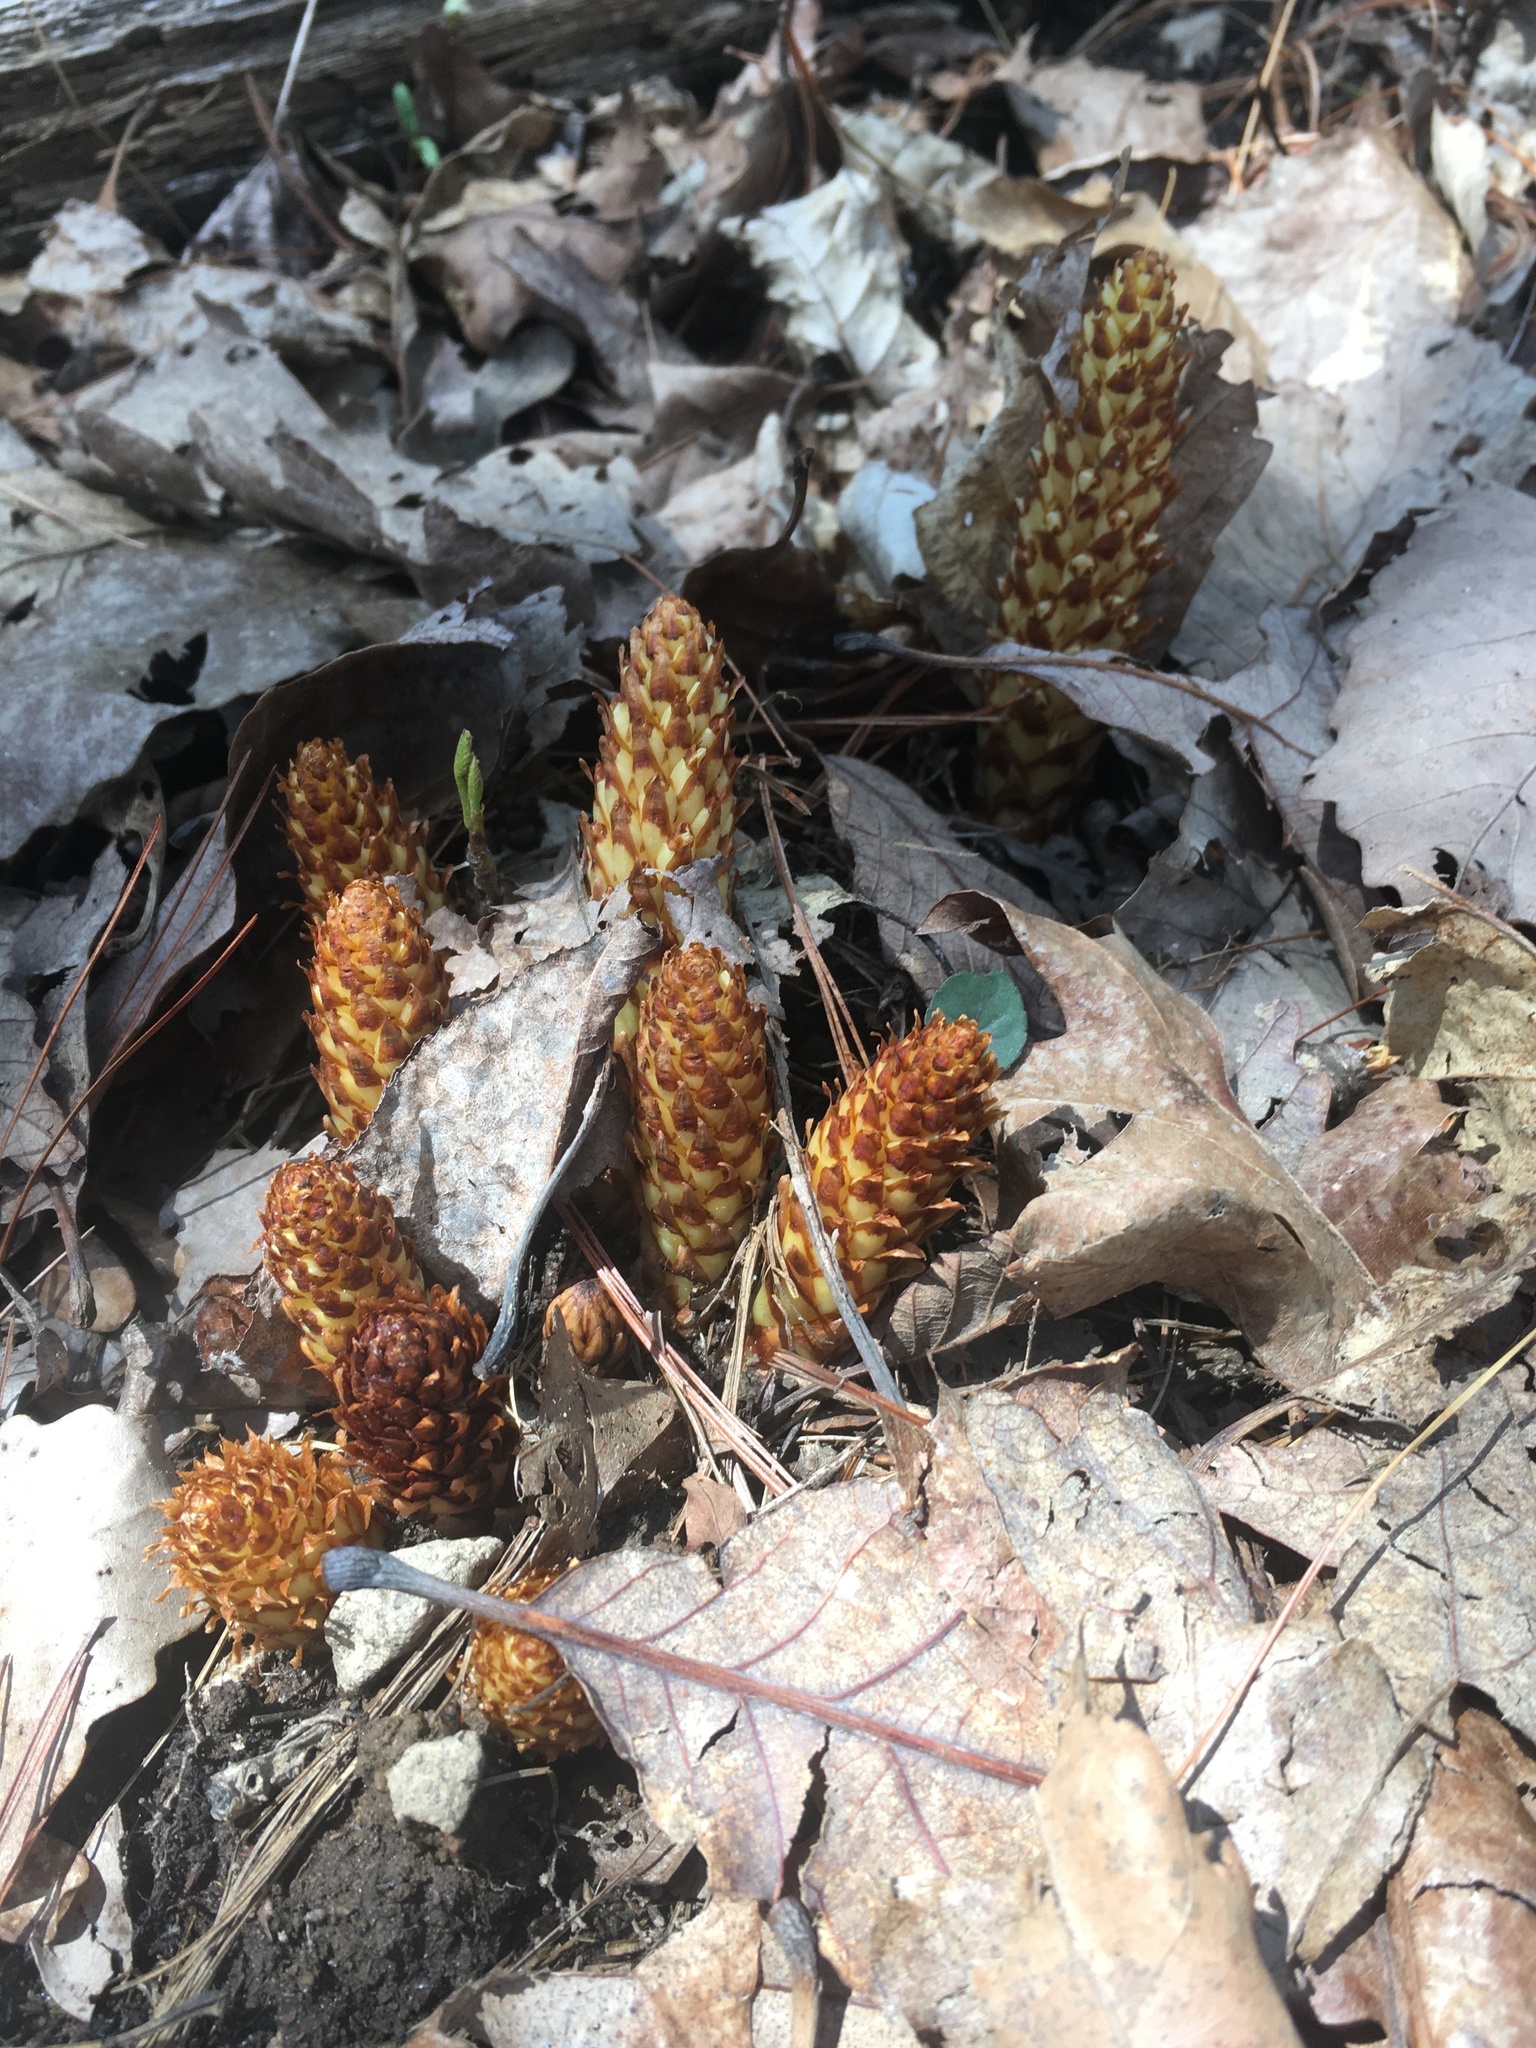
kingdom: Plantae
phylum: Tracheophyta
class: Magnoliopsida
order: Lamiales
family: Orobanchaceae
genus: Conopholis
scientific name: Conopholis americana
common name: American cancer-root
